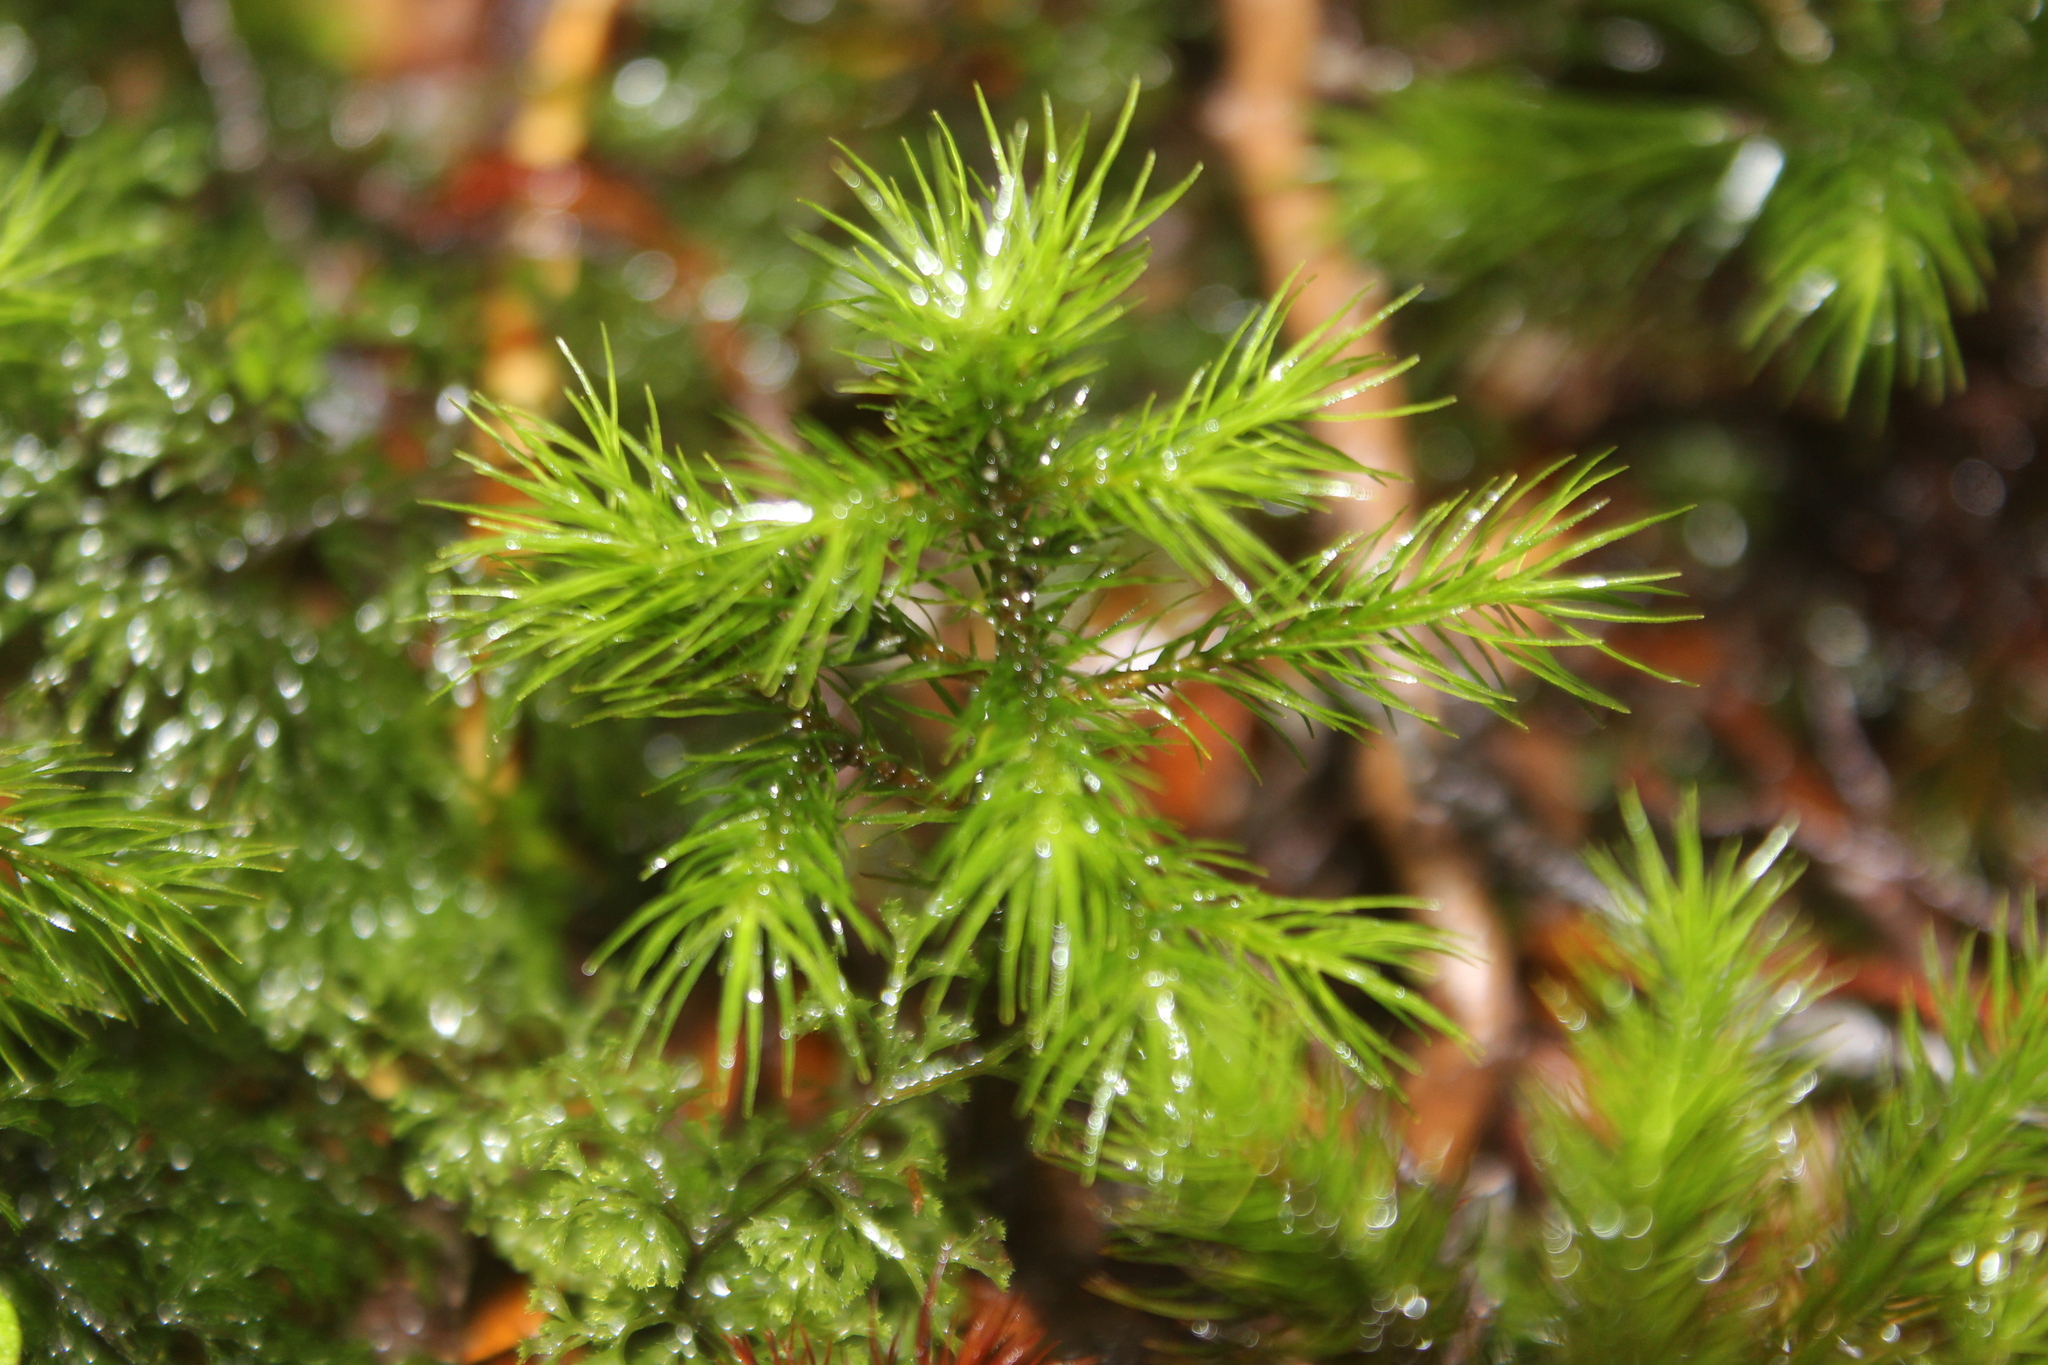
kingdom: Plantae
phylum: Bryophyta
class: Polytrichopsida
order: Polytrichales
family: Polytrichaceae
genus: Dendroligotrichum
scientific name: Dendroligotrichum tongariroense
